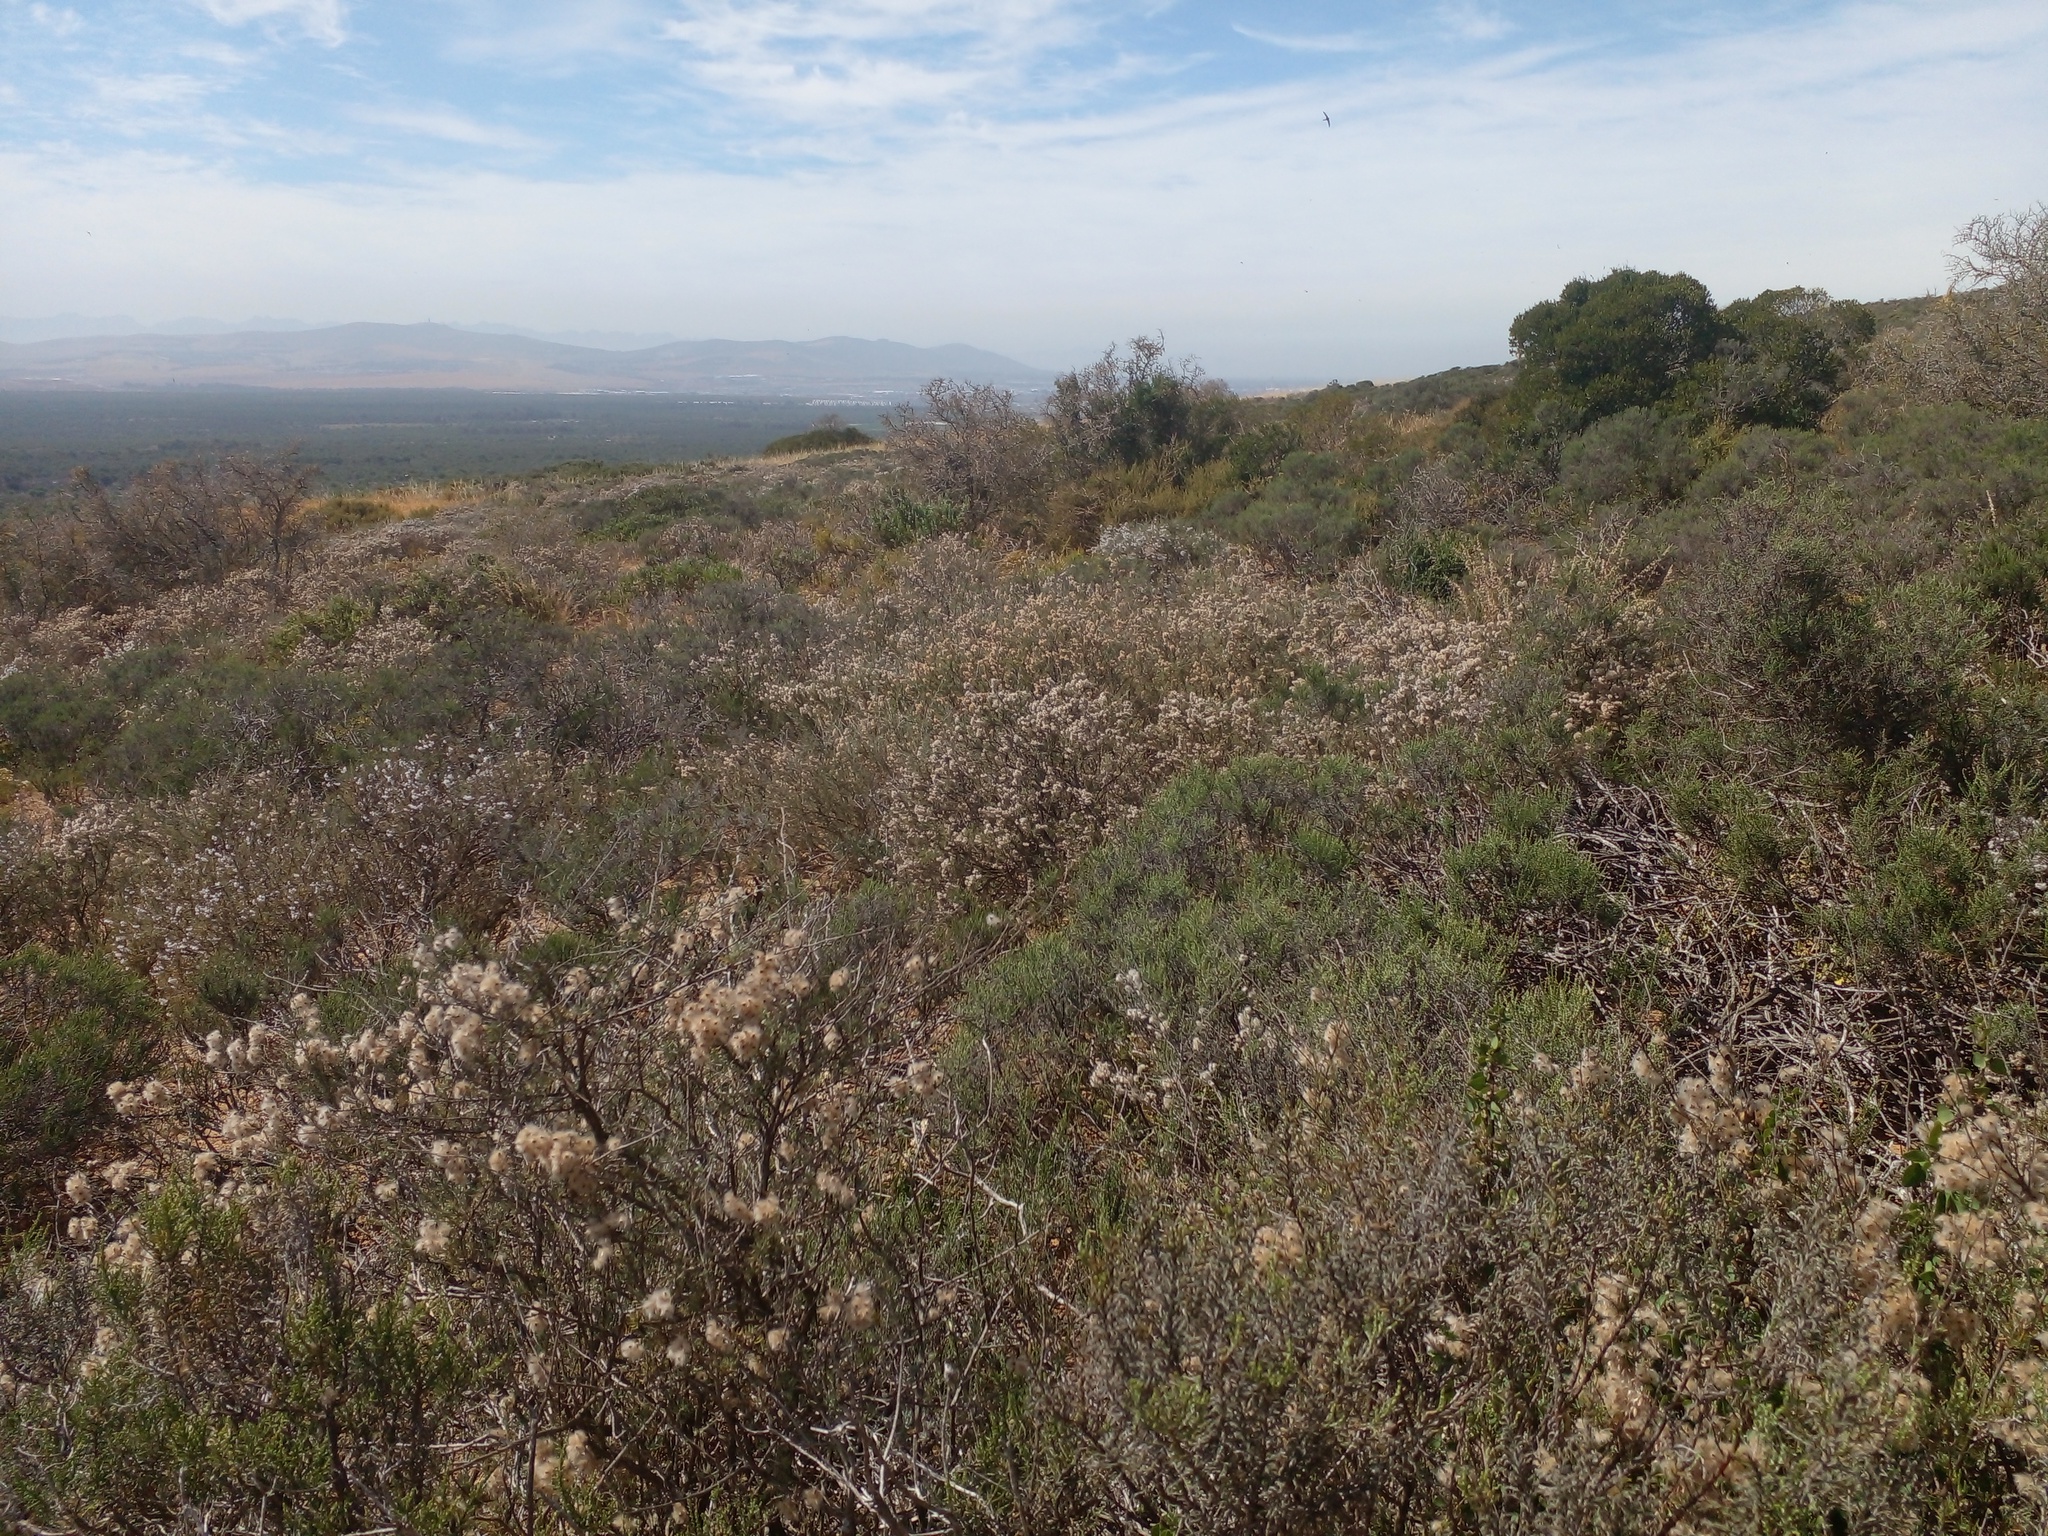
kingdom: Plantae
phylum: Tracheophyta
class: Magnoliopsida
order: Asterales
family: Asteraceae
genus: Eriocephalus
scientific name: Eriocephalus africanus
